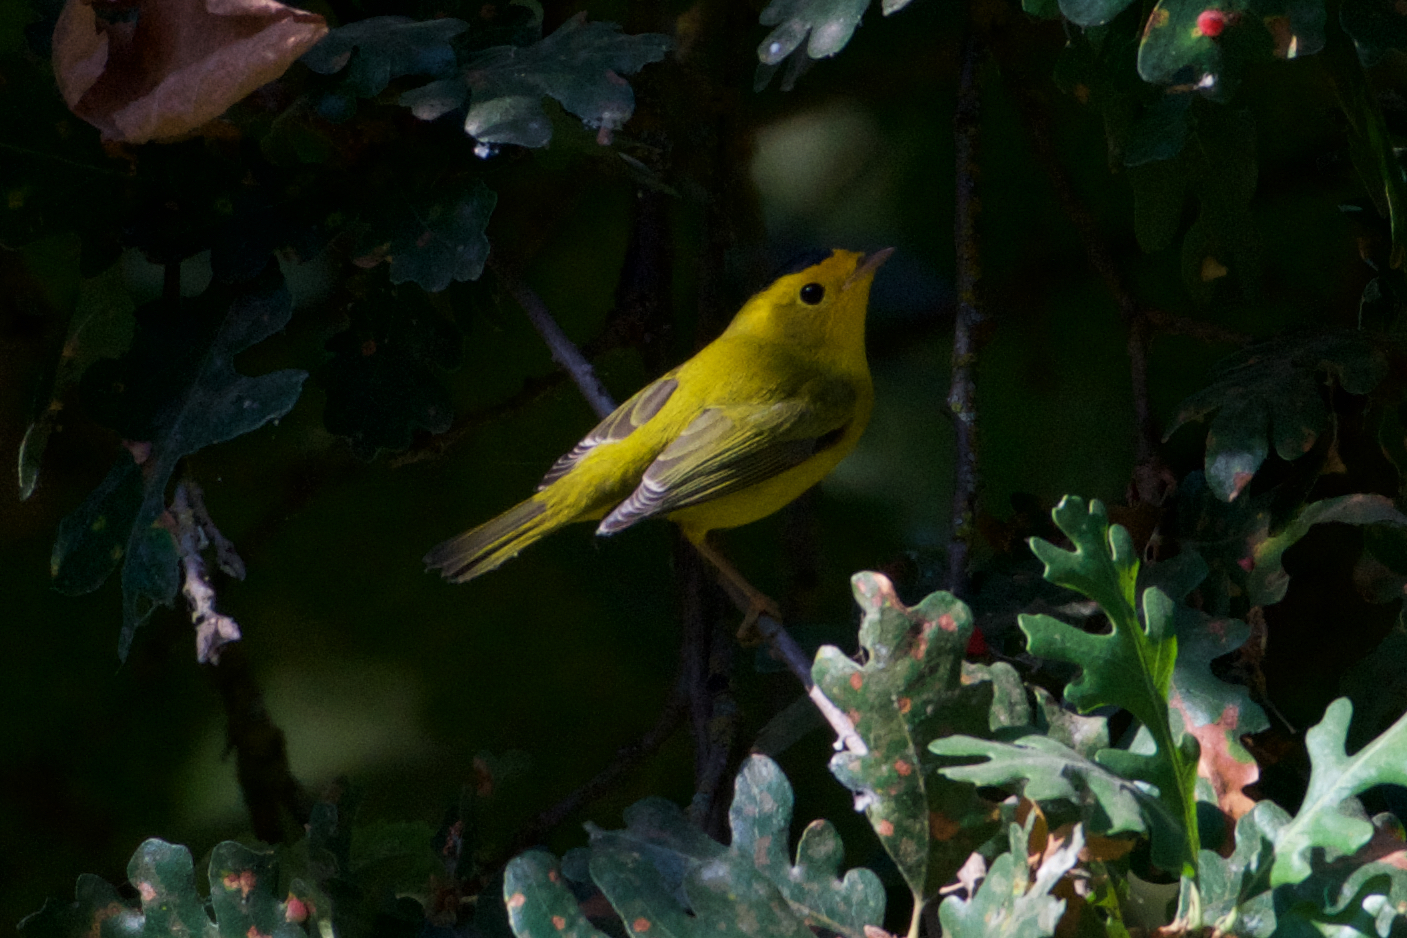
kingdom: Animalia
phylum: Chordata
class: Aves
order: Passeriformes
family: Parulidae
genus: Cardellina
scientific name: Cardellina pusilla
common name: Wilson's warbler
